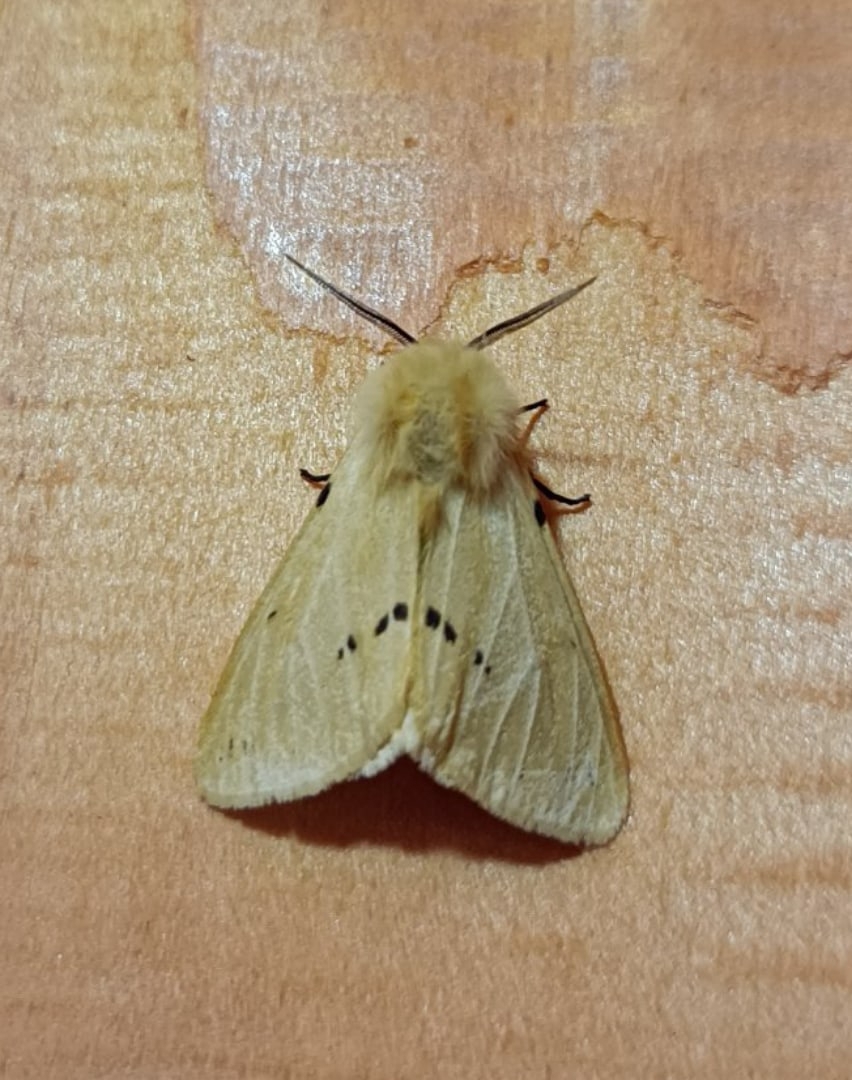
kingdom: Animalia
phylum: Arthropoda
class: Insecta
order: Lepidoptera
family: Erebidae
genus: Spilarctia
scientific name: Spilarctia lutea
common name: Buff ermine
